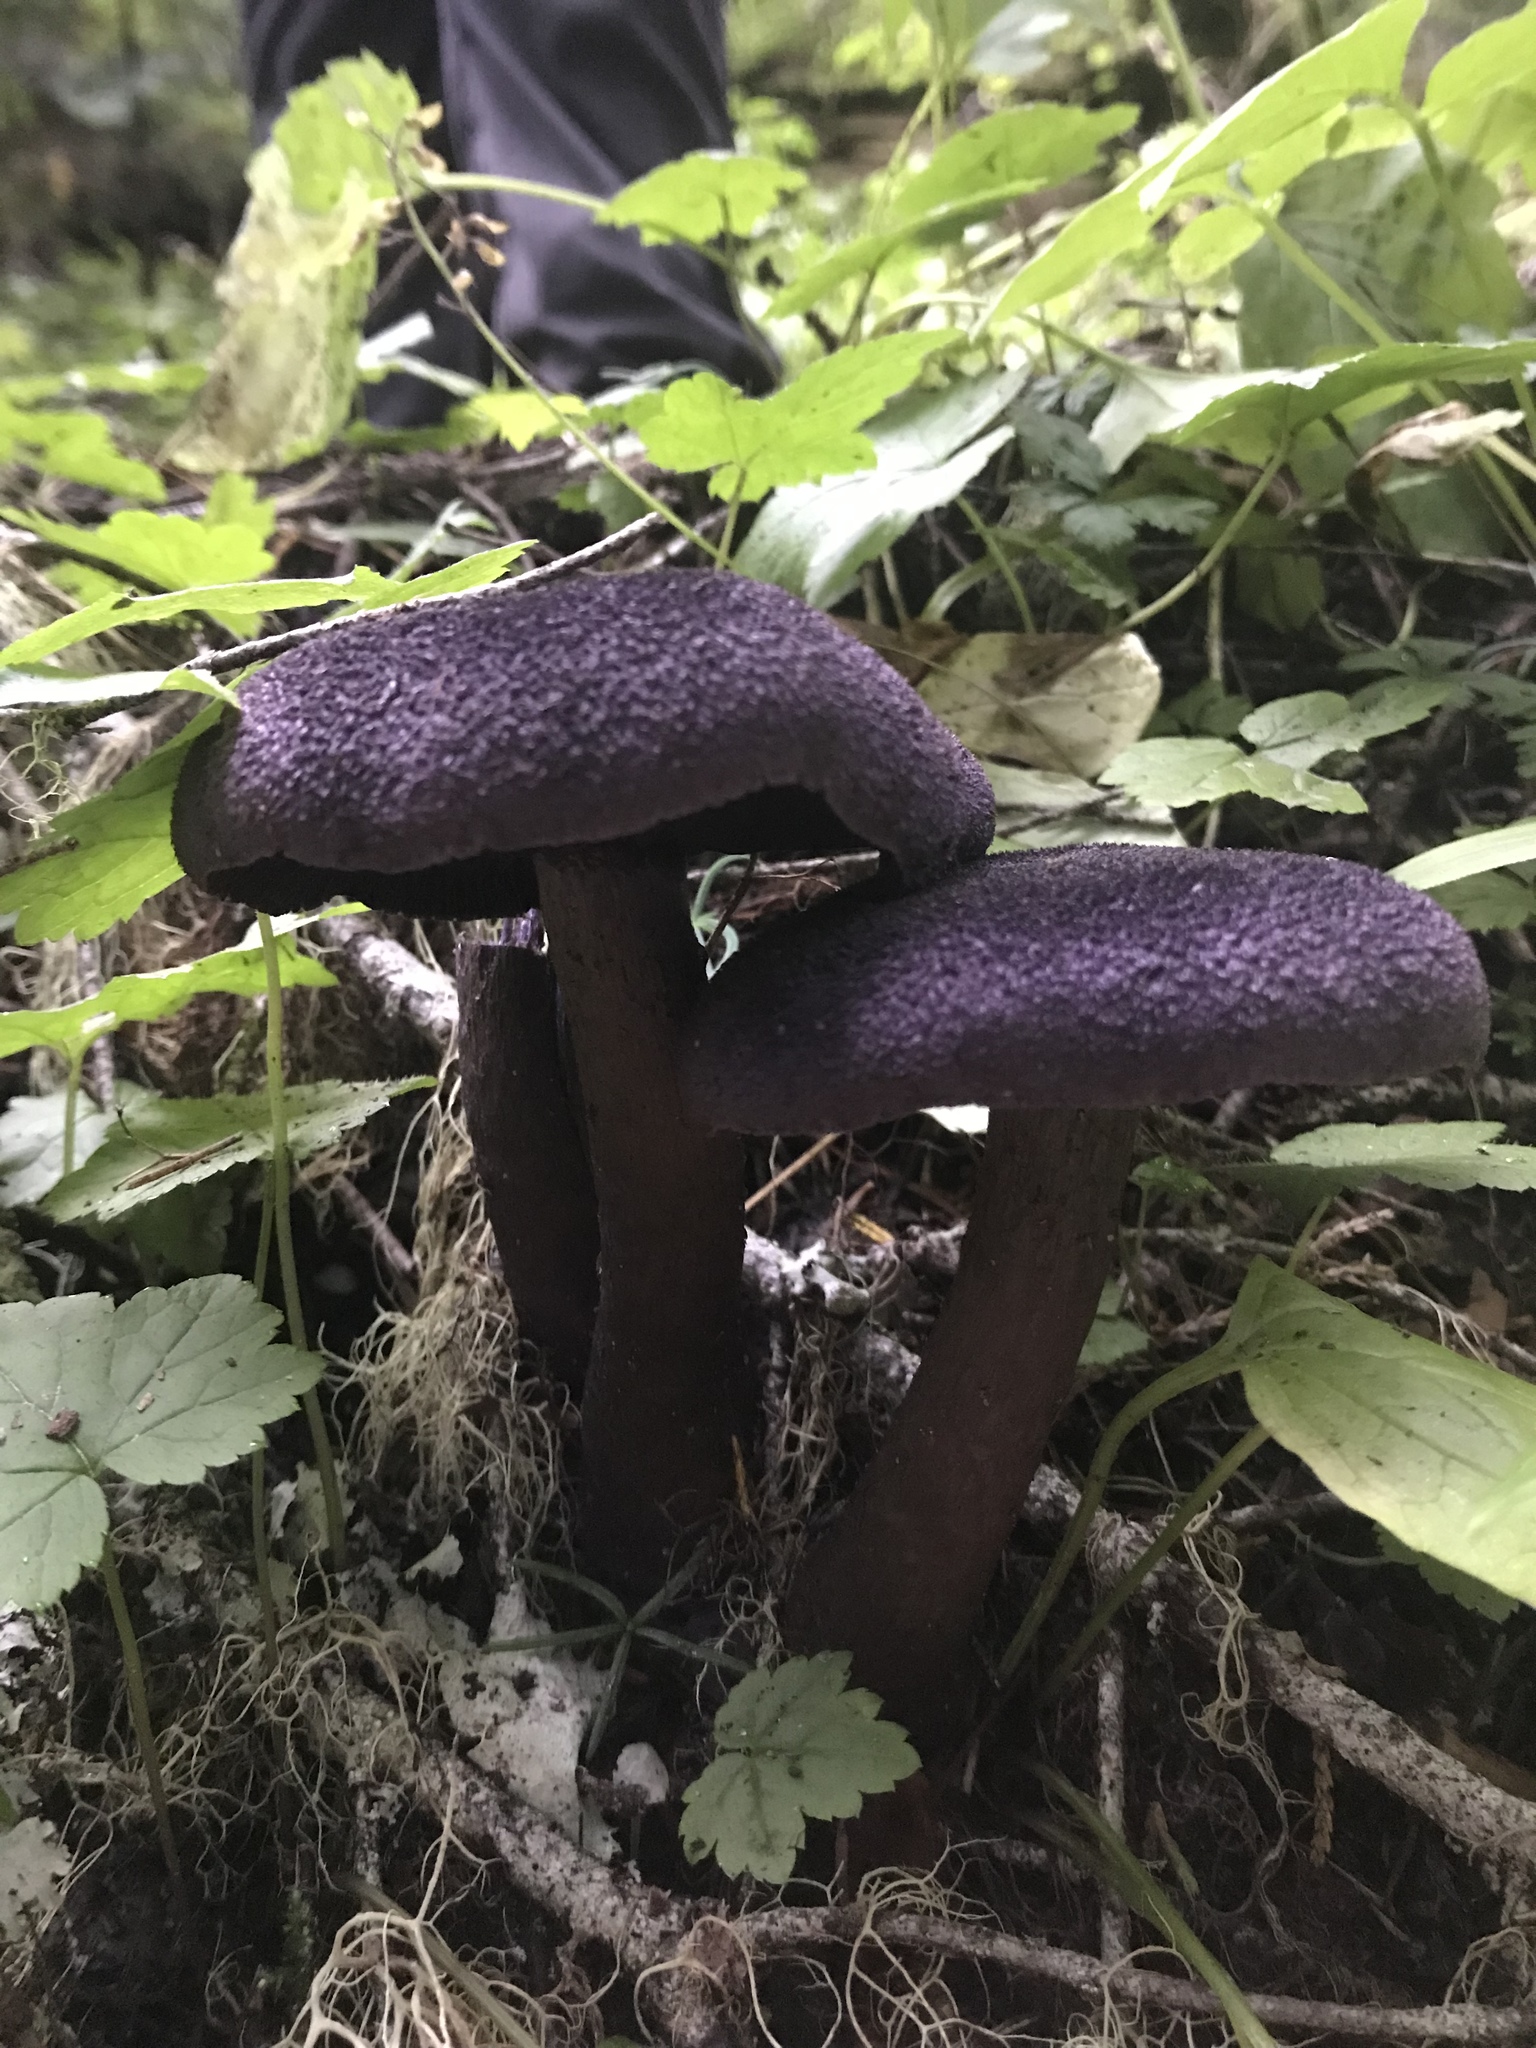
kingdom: Fungi
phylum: Basidiomycota
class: Agaricomycetes
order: Agaricales
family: Cortinariaceae
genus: Cortinarius
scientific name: Cortinarius violaceus
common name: Violet webcap
